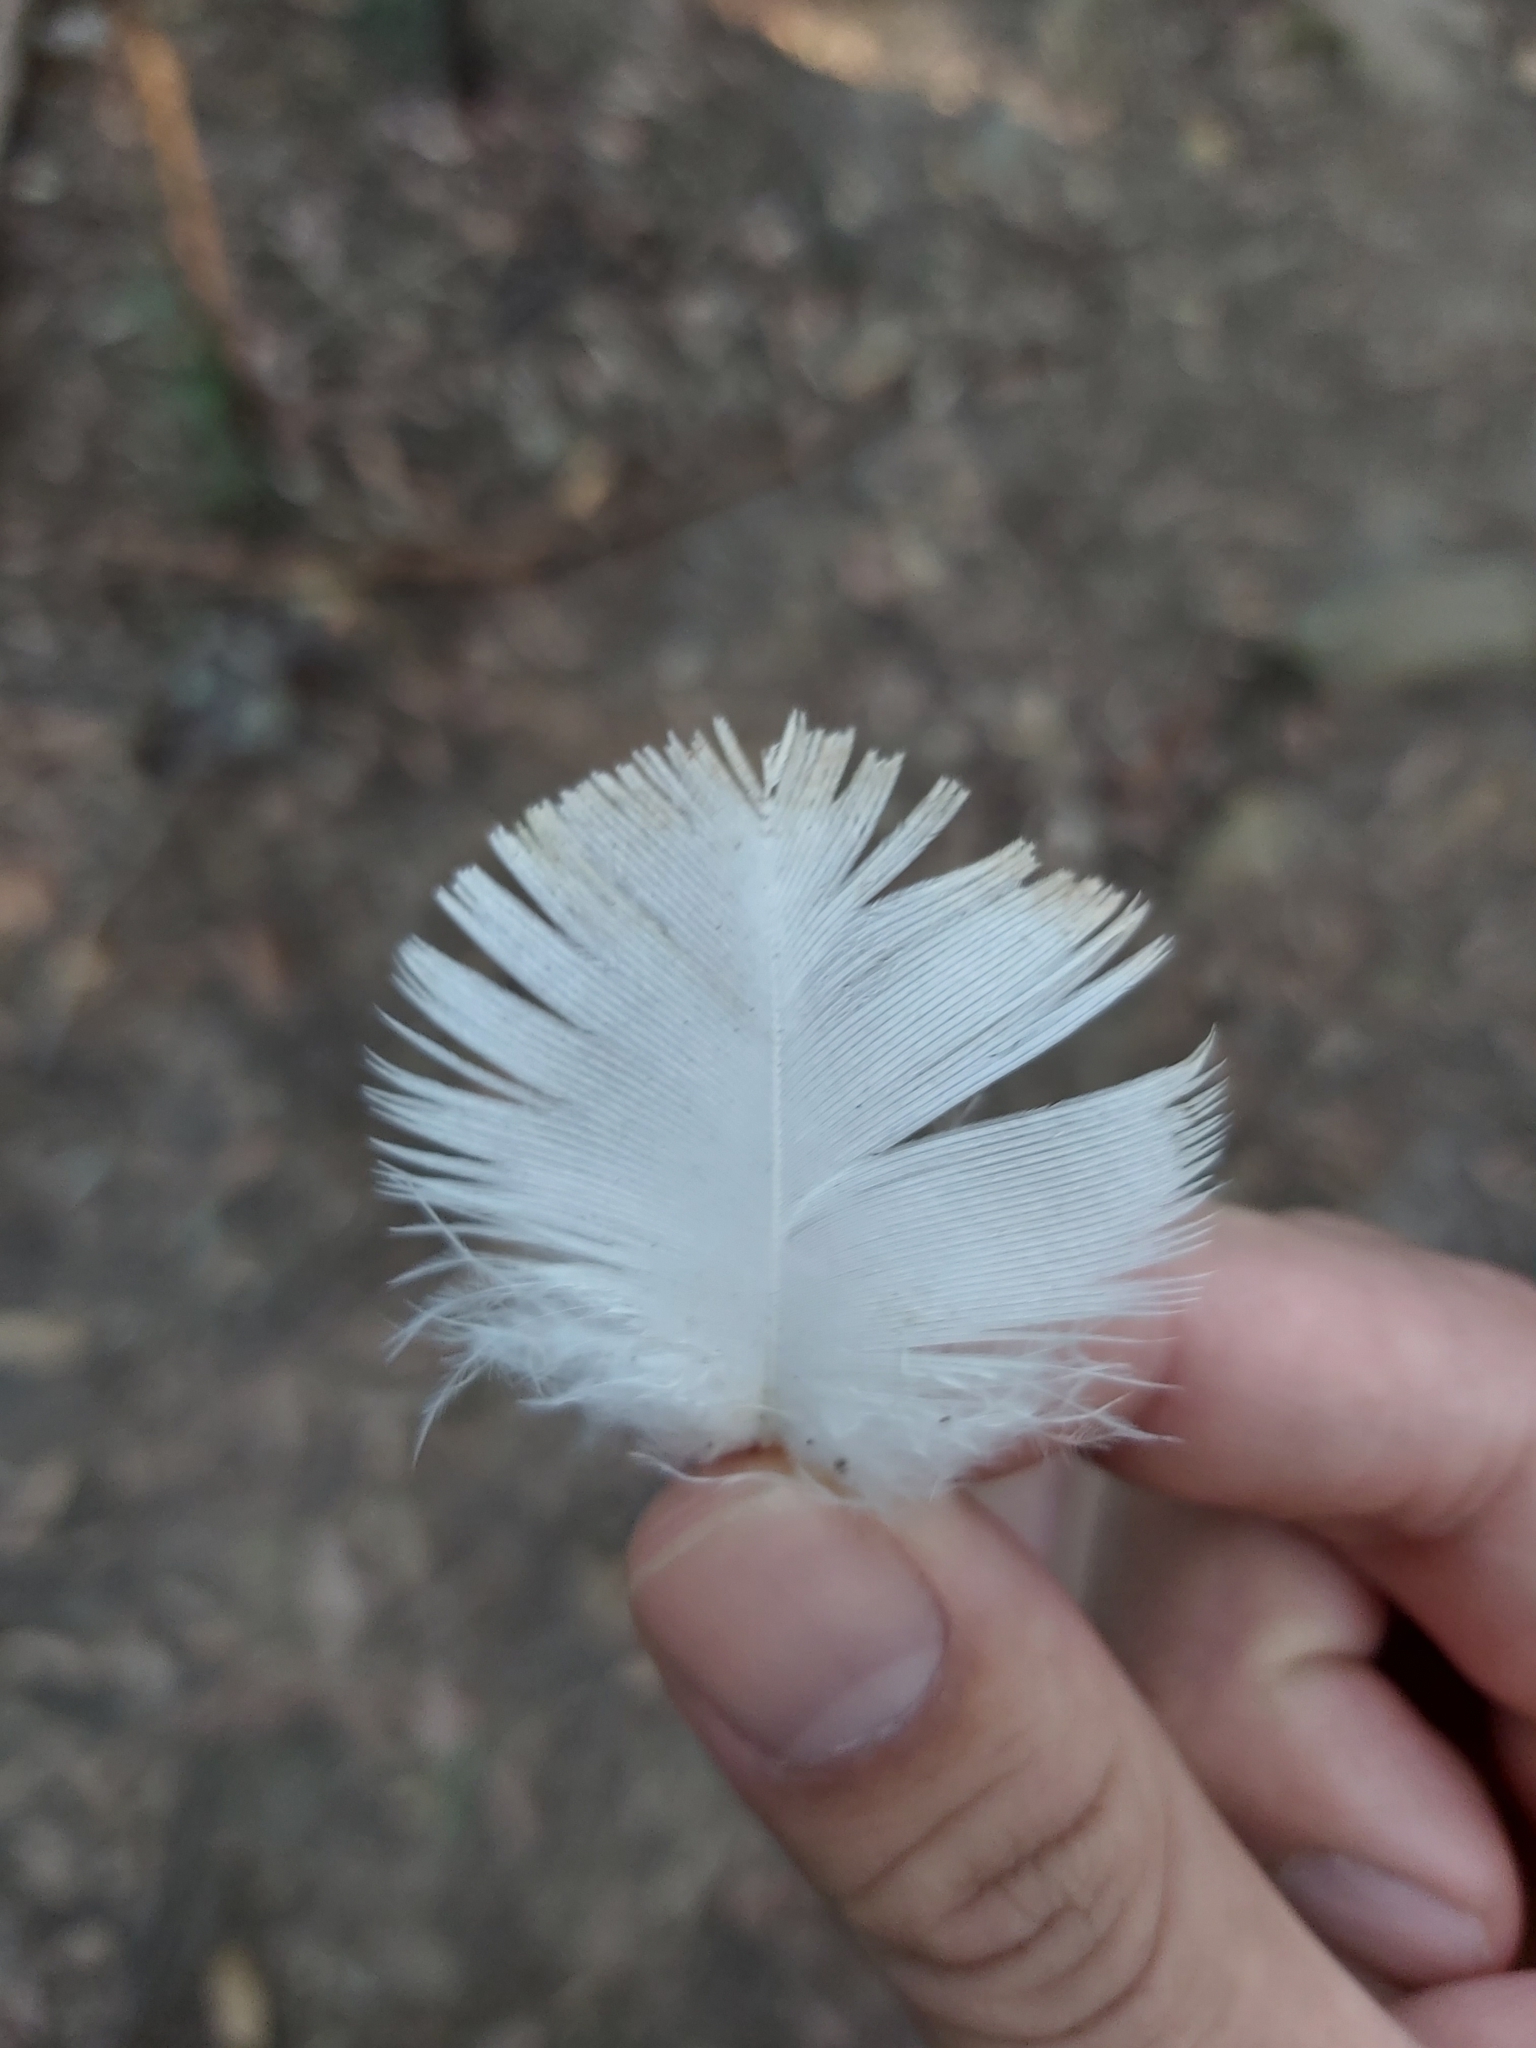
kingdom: Animalia
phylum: Chordata
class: Aves
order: Psittaciformes
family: Psittacidae
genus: Cacatua
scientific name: Cacatua galerita
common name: Sulphur-crested cockatoo
